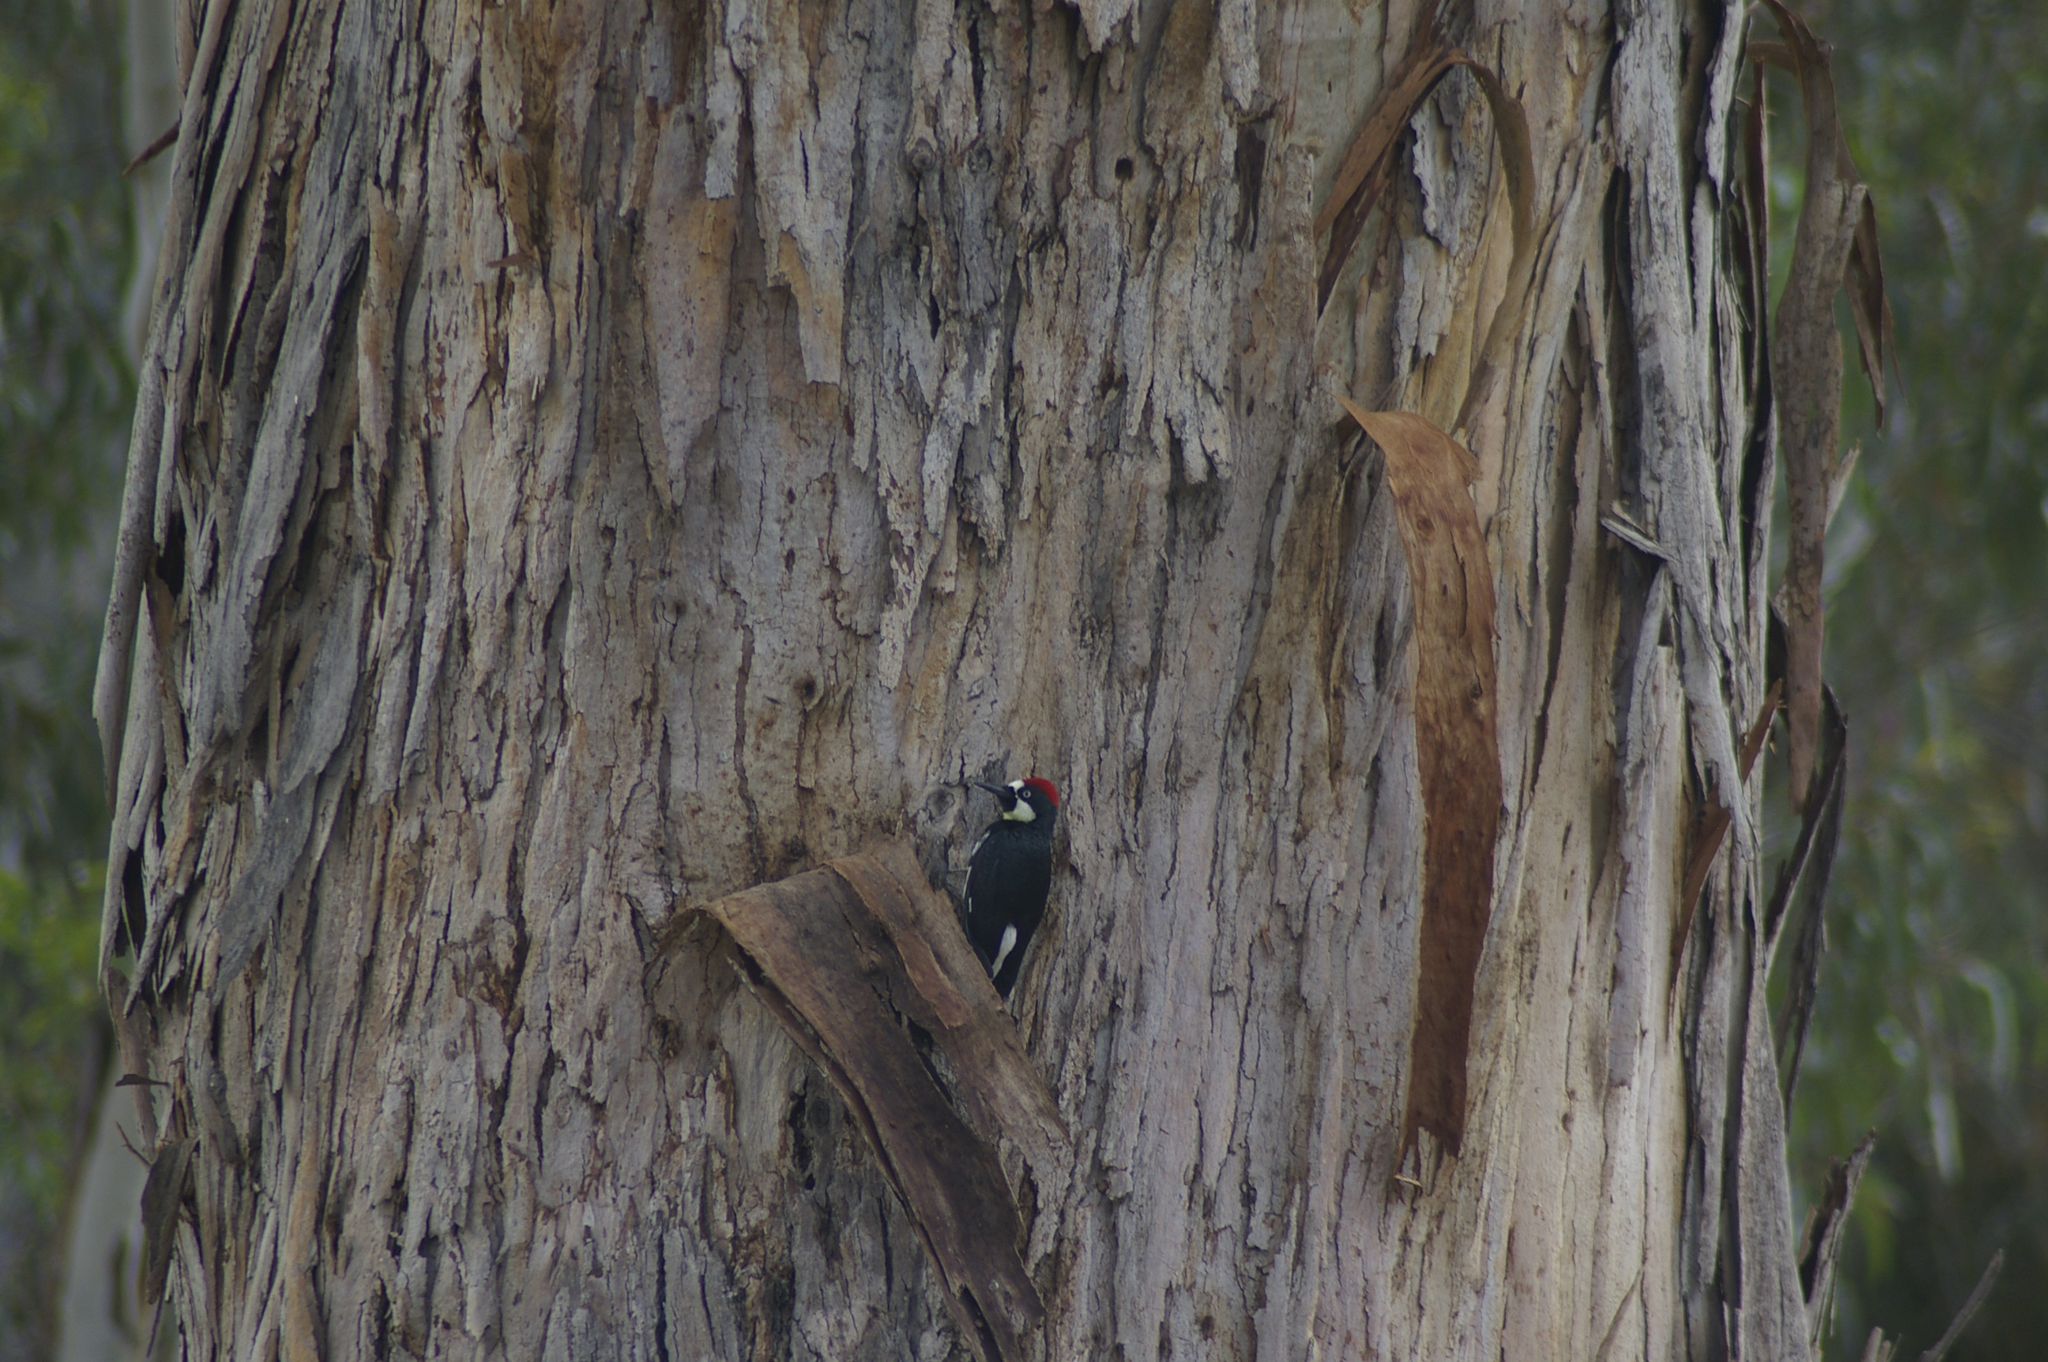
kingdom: Animalia
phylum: Chordata
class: Aves
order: Piciformes
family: Picidae
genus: Melanerpes
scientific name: Melanerpes formicivorus
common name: Acorn woodpecker
